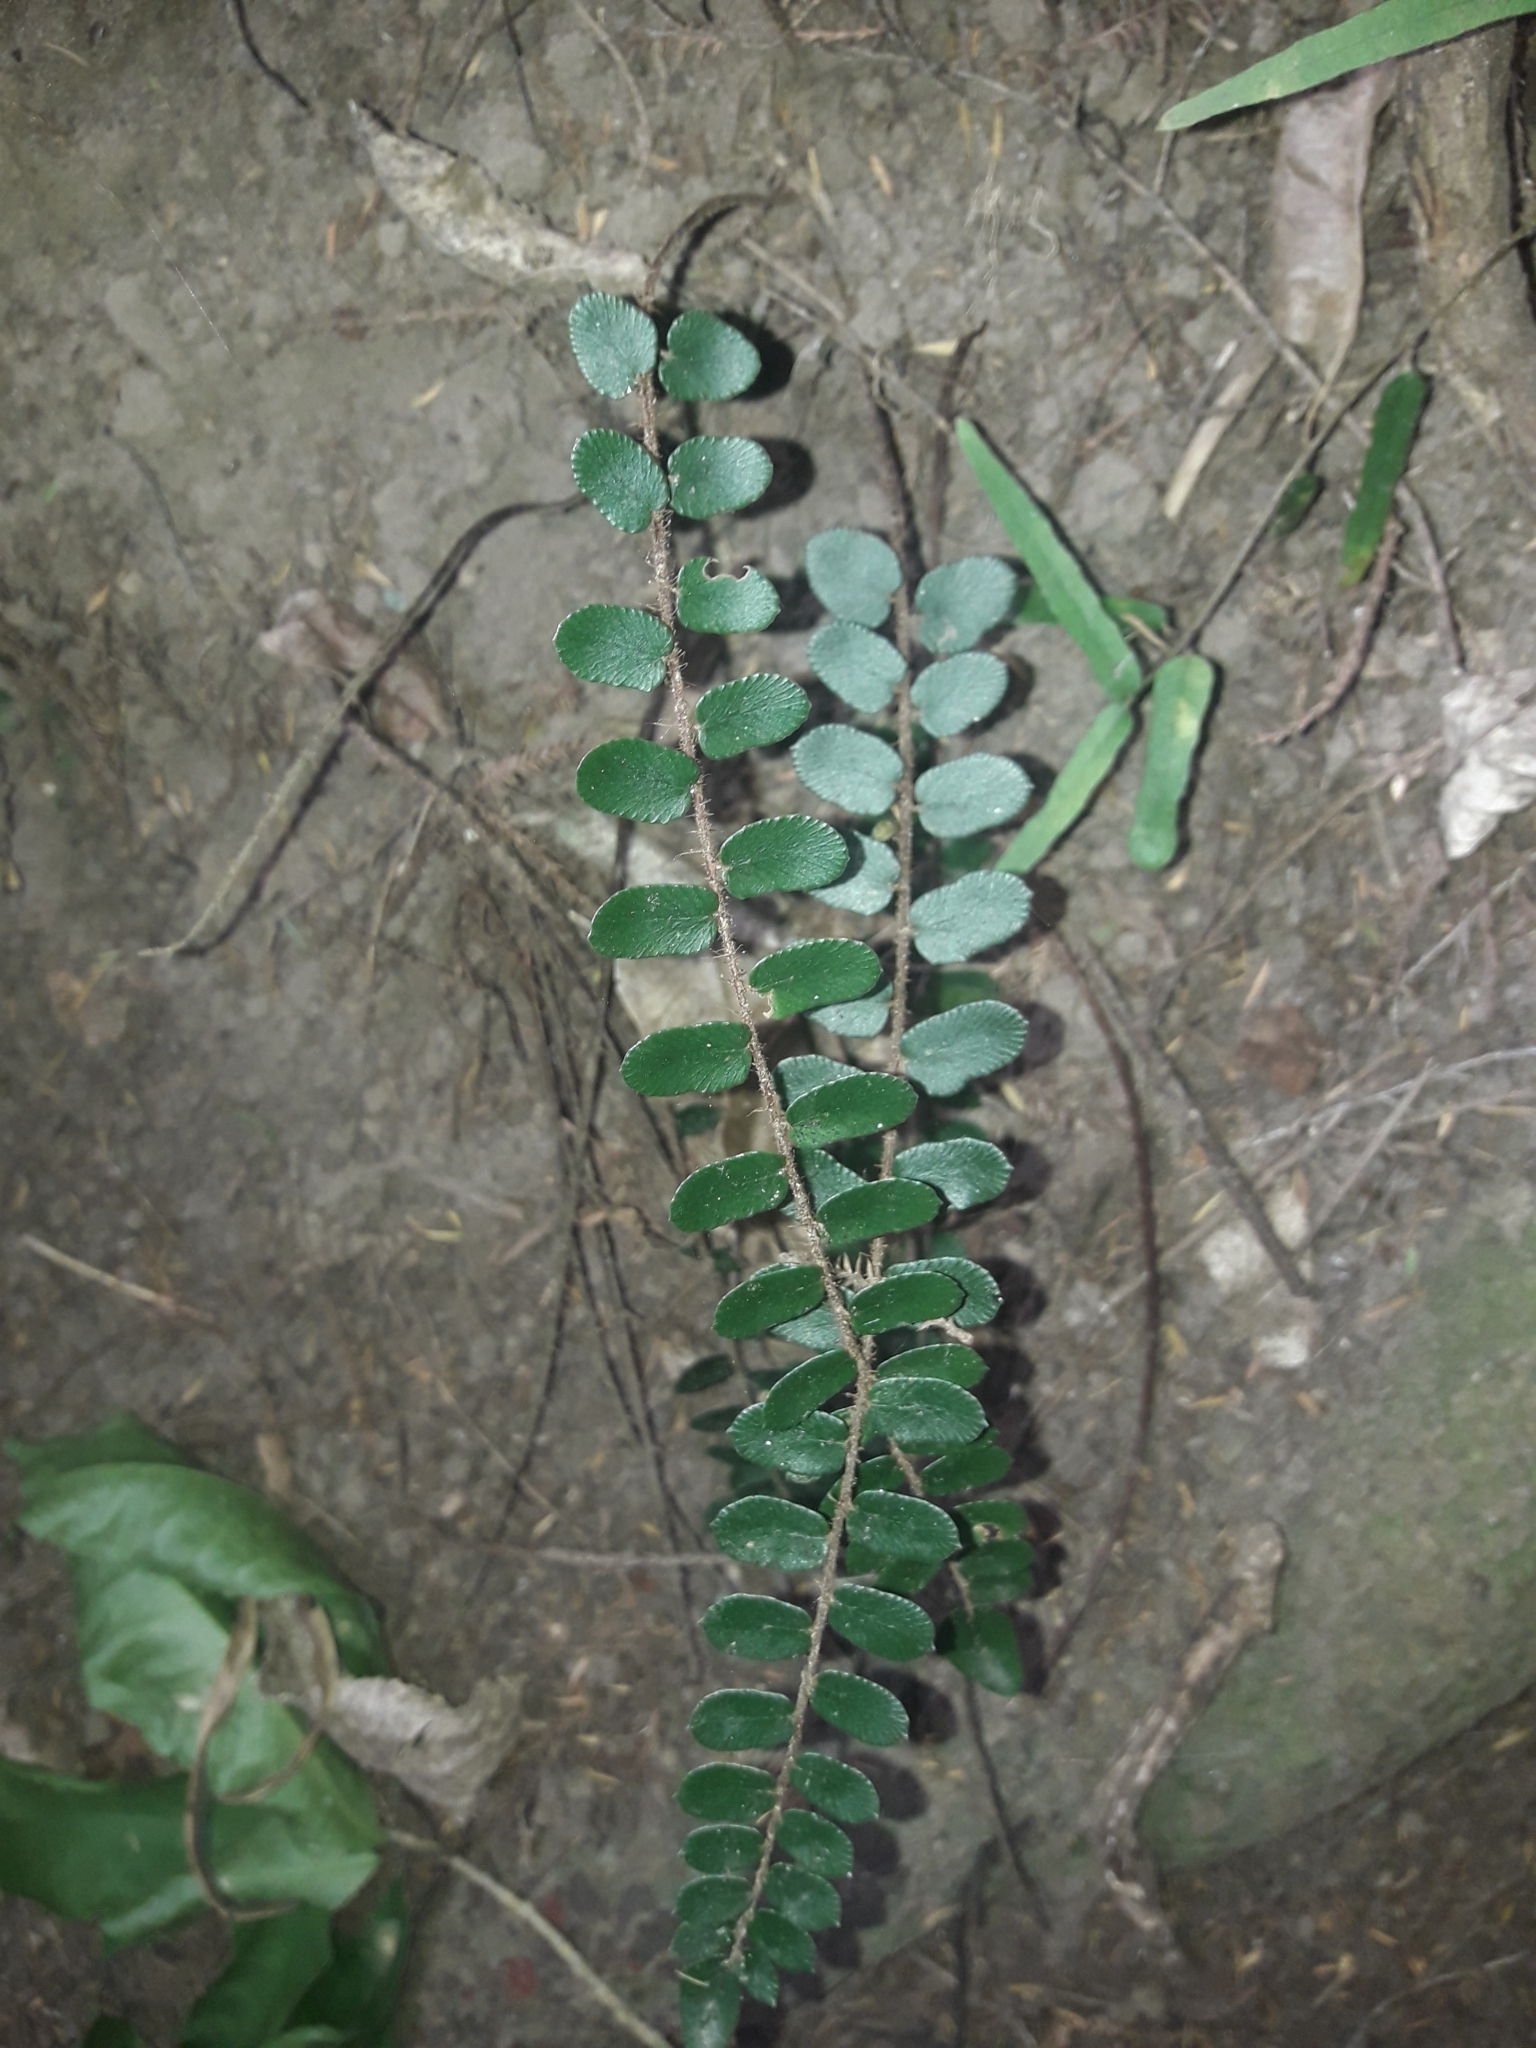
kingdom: Plantae
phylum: Tracheophyta
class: Polypodiopsida
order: Polypodiales
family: Pteridaceae
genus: Pellaea
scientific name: Pellaea rotundifolia
